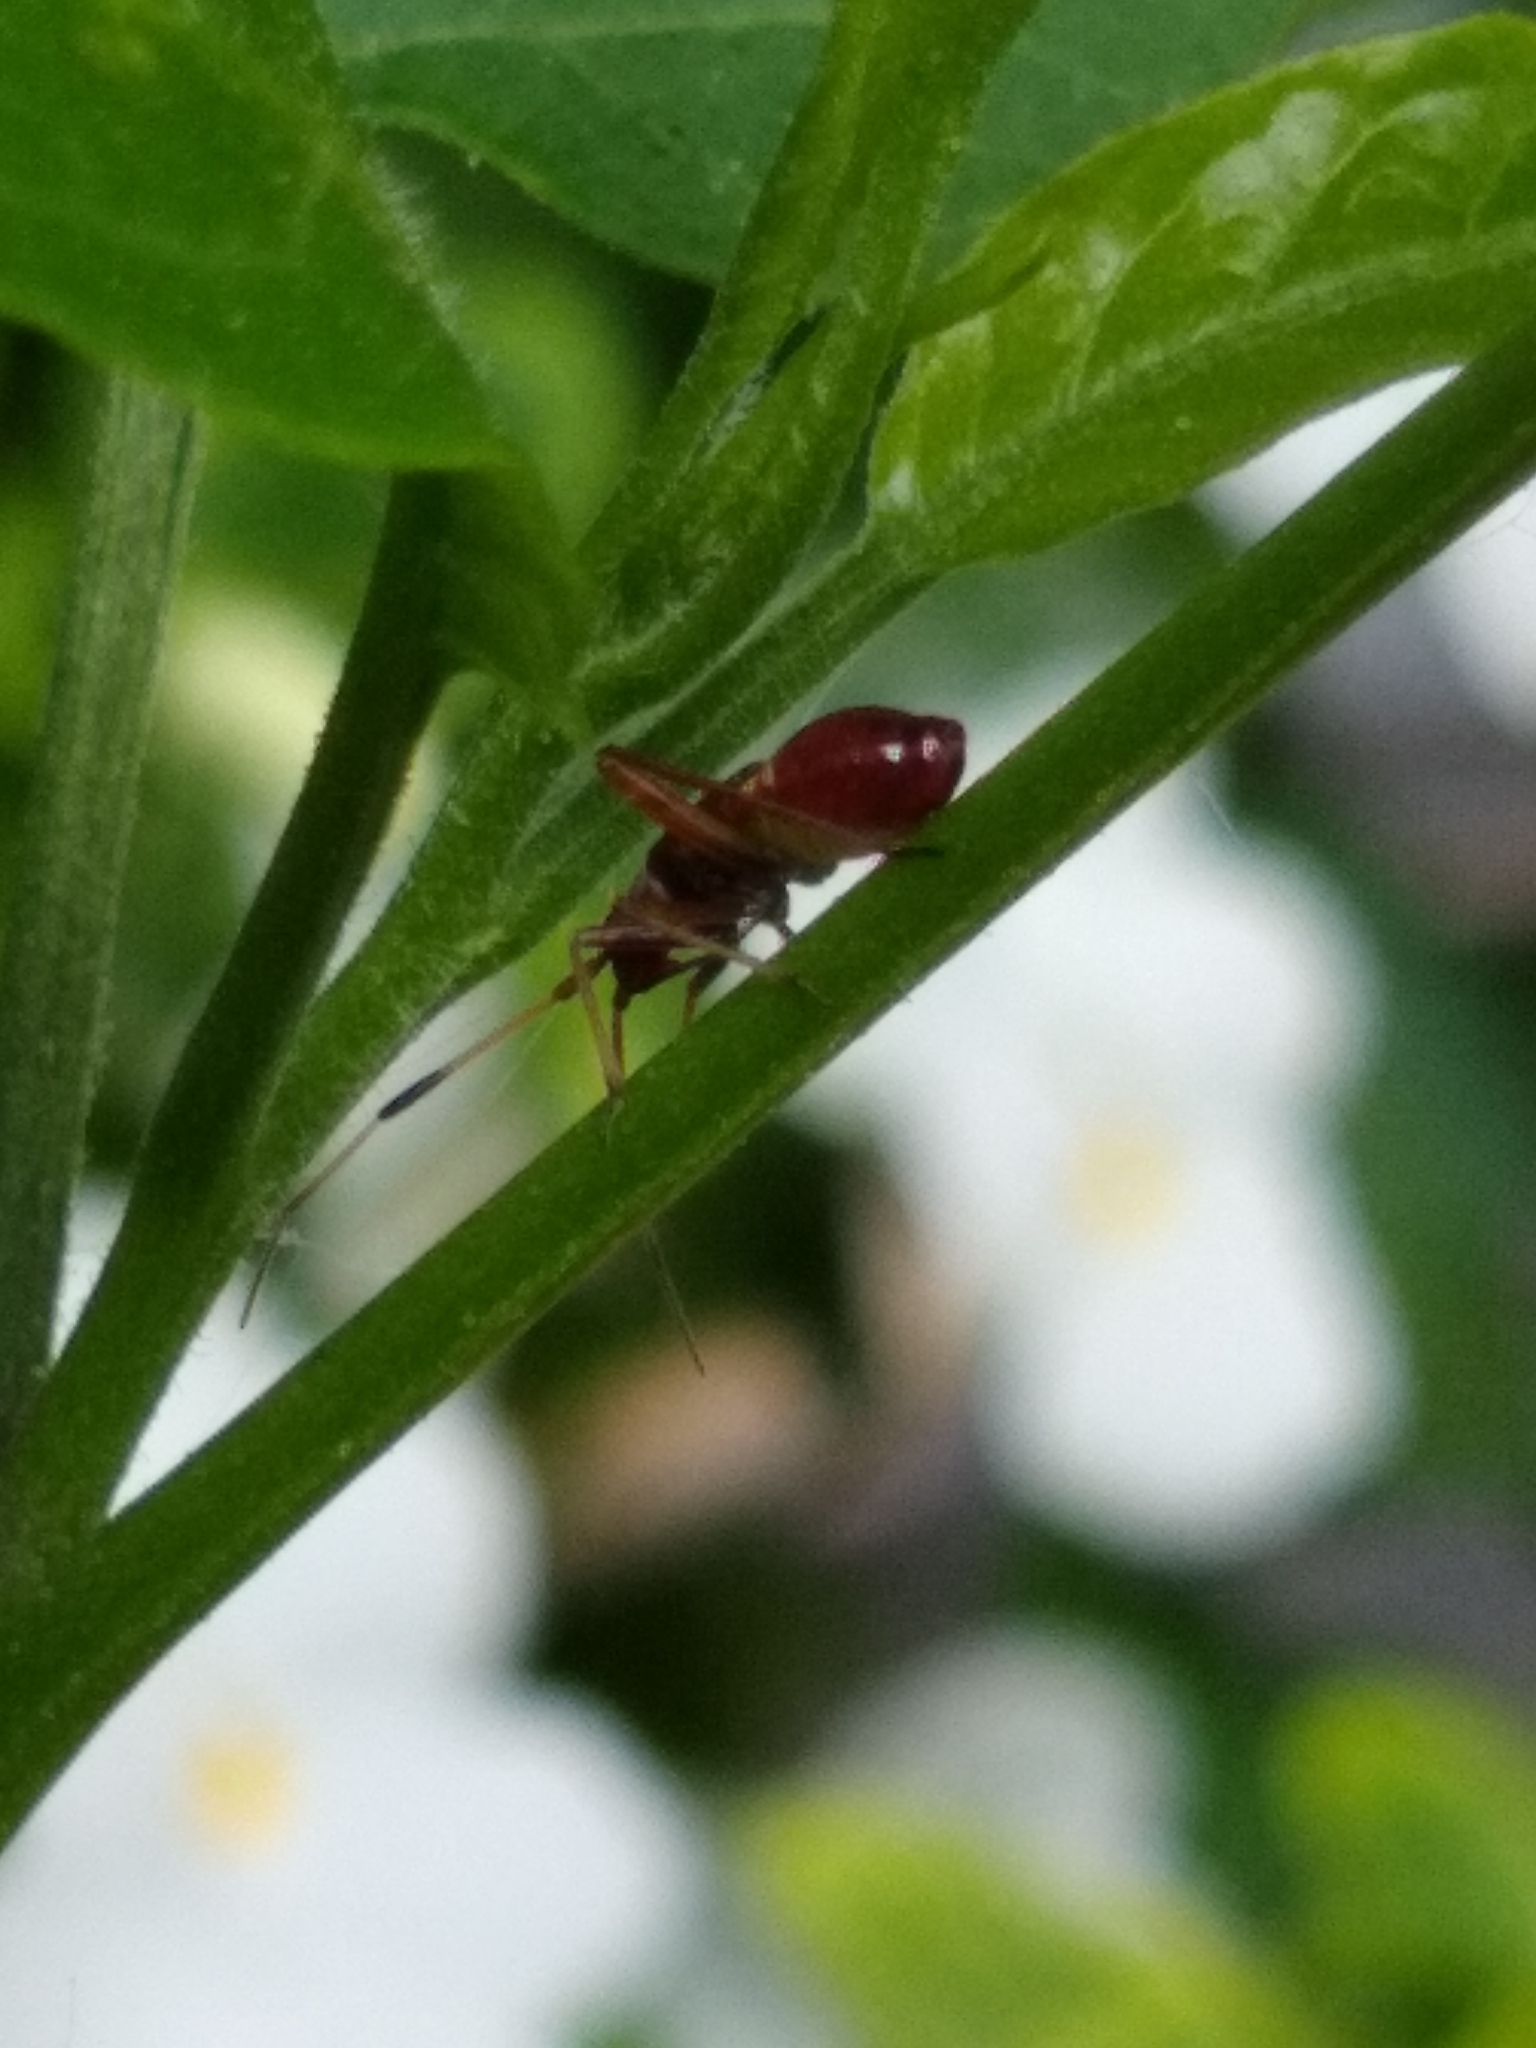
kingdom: Animalia
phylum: Arthropoda
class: Insecta
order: Hemiptera
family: Miridae
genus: Closterotomus
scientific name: Closterotomus biclavatus
